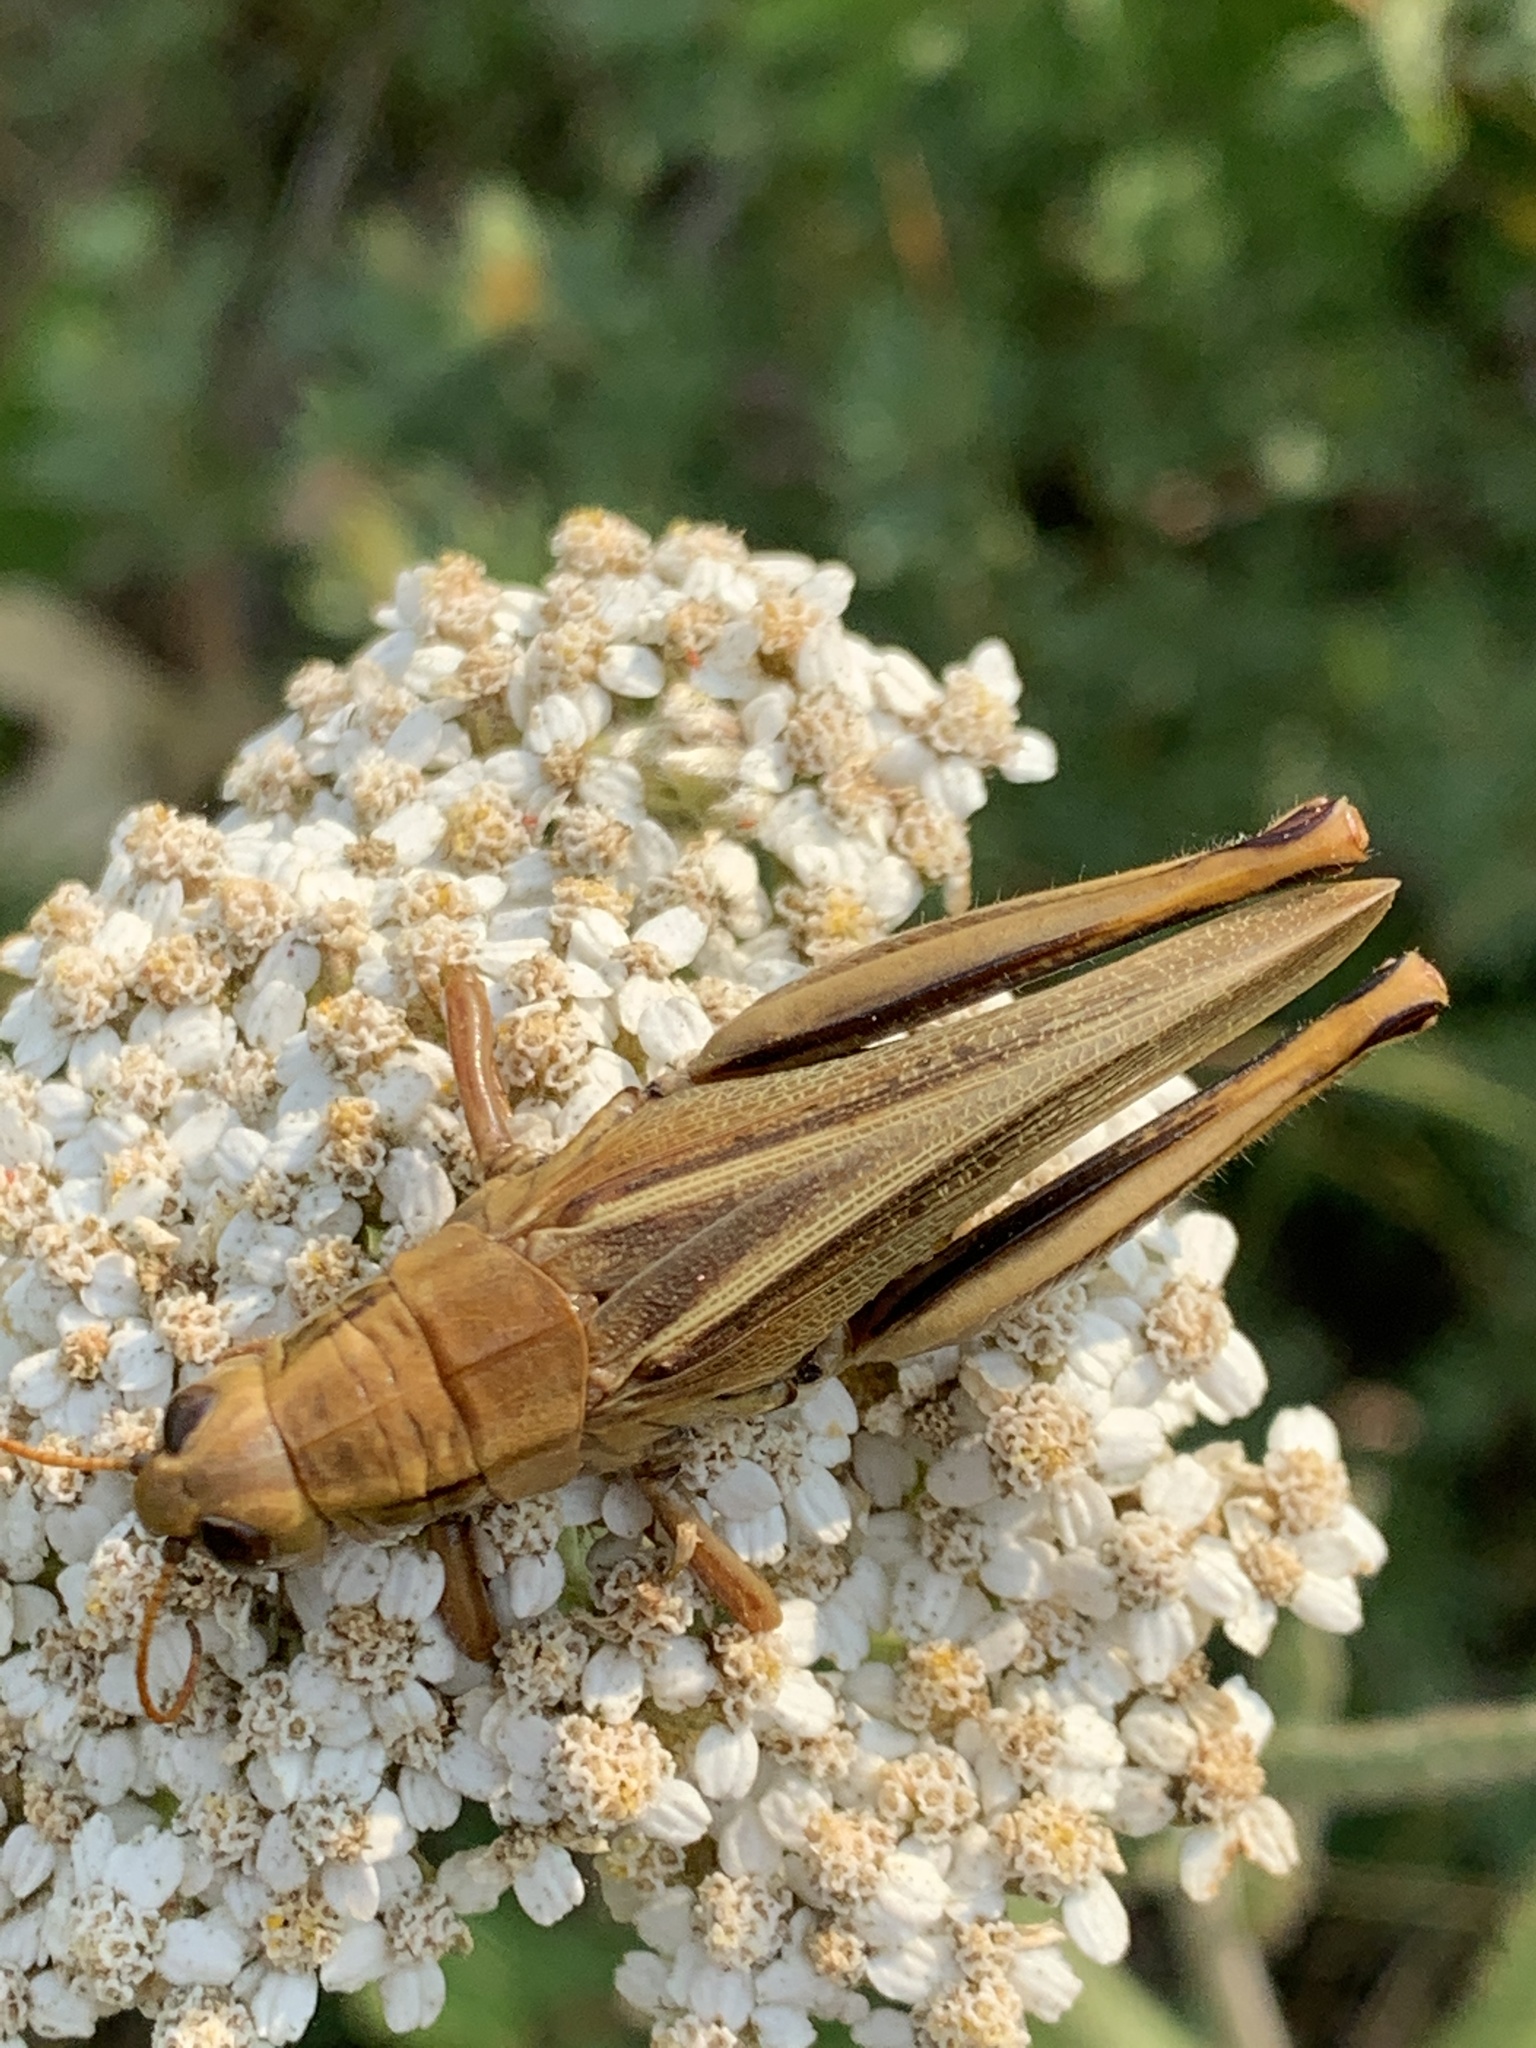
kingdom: Animalia
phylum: Arthropoda
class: Insecta
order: Orthoptera
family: Acrididae
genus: Melanoplus
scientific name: Melanoplus bivittatus
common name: Two-striped grasshopper
